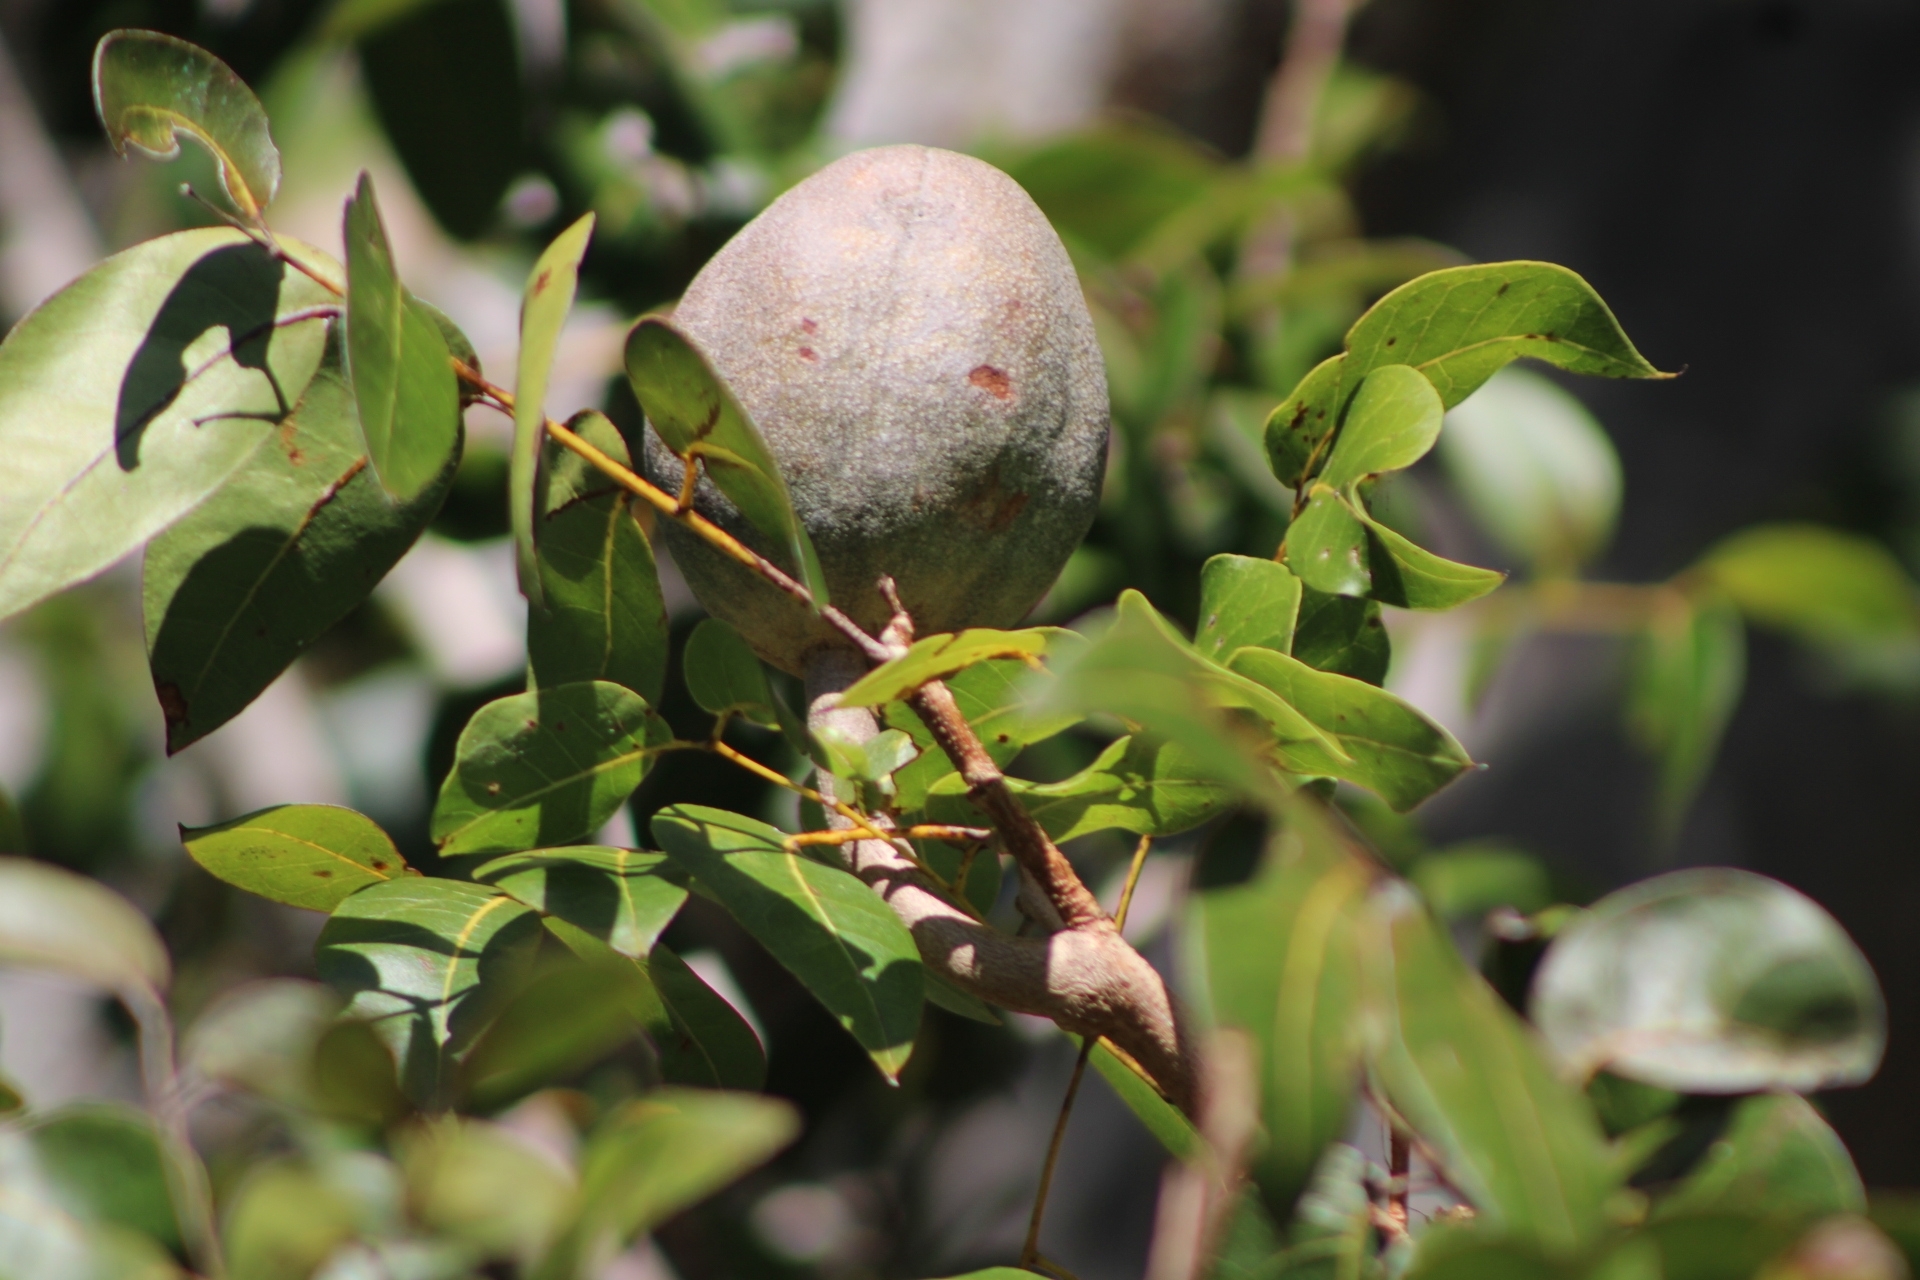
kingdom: Plantae
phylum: Tracheophyta
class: Magnoliopsida
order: Sapindales
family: Meliaceae
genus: Swietenia
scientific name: Swietenia mahagoni
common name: West indian mahogany
